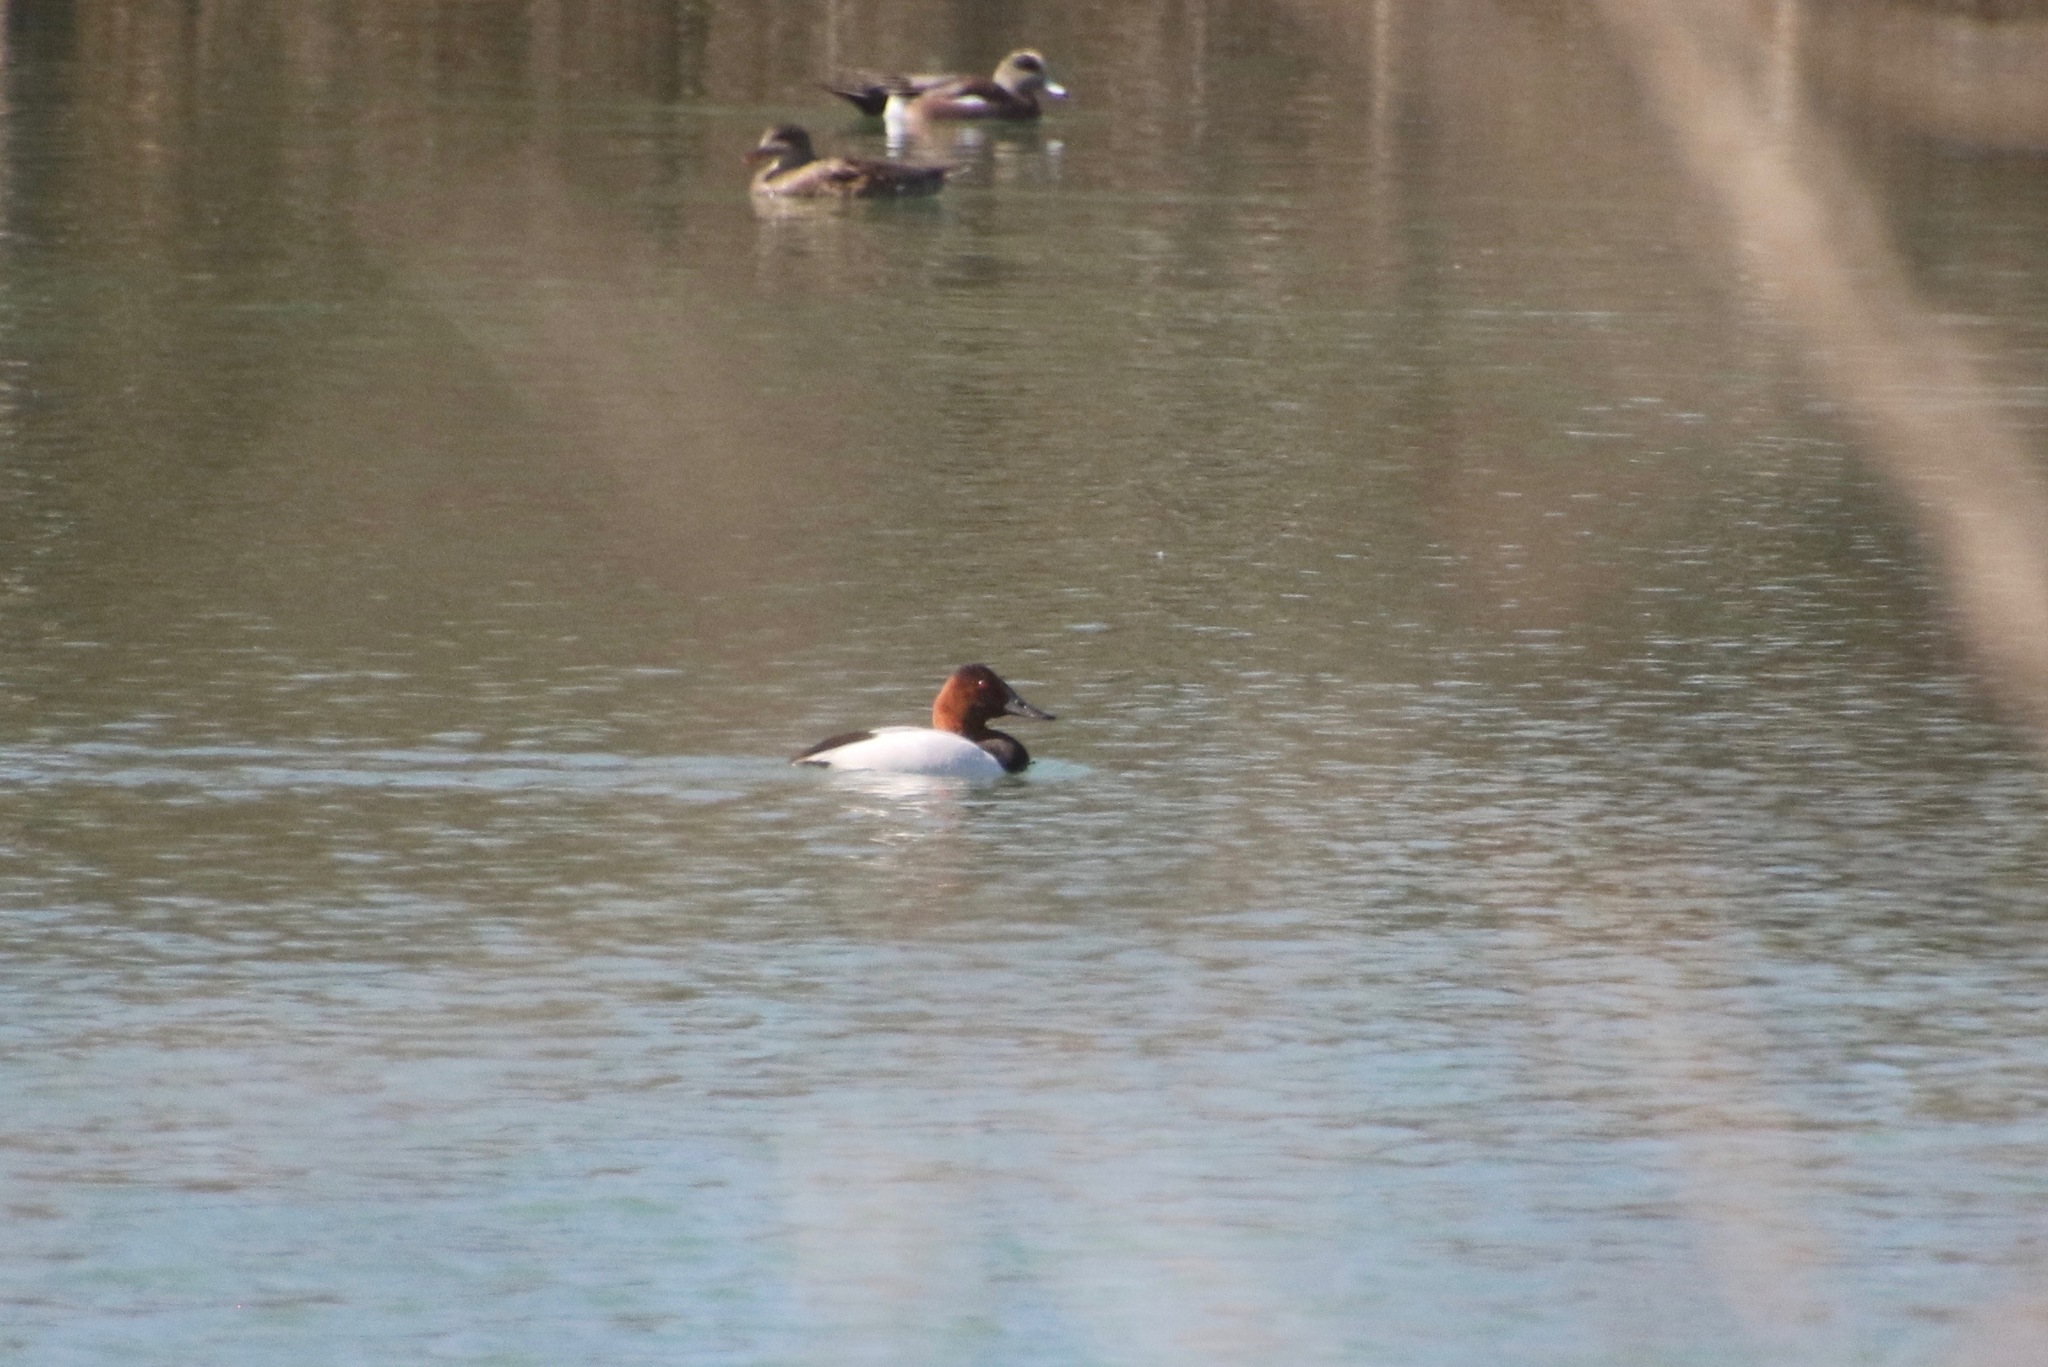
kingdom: Animalia
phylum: Chordata
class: Aves
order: Anseriformes
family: Anatidae
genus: Aythya
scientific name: Aythya valisineria
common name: Canvasback
